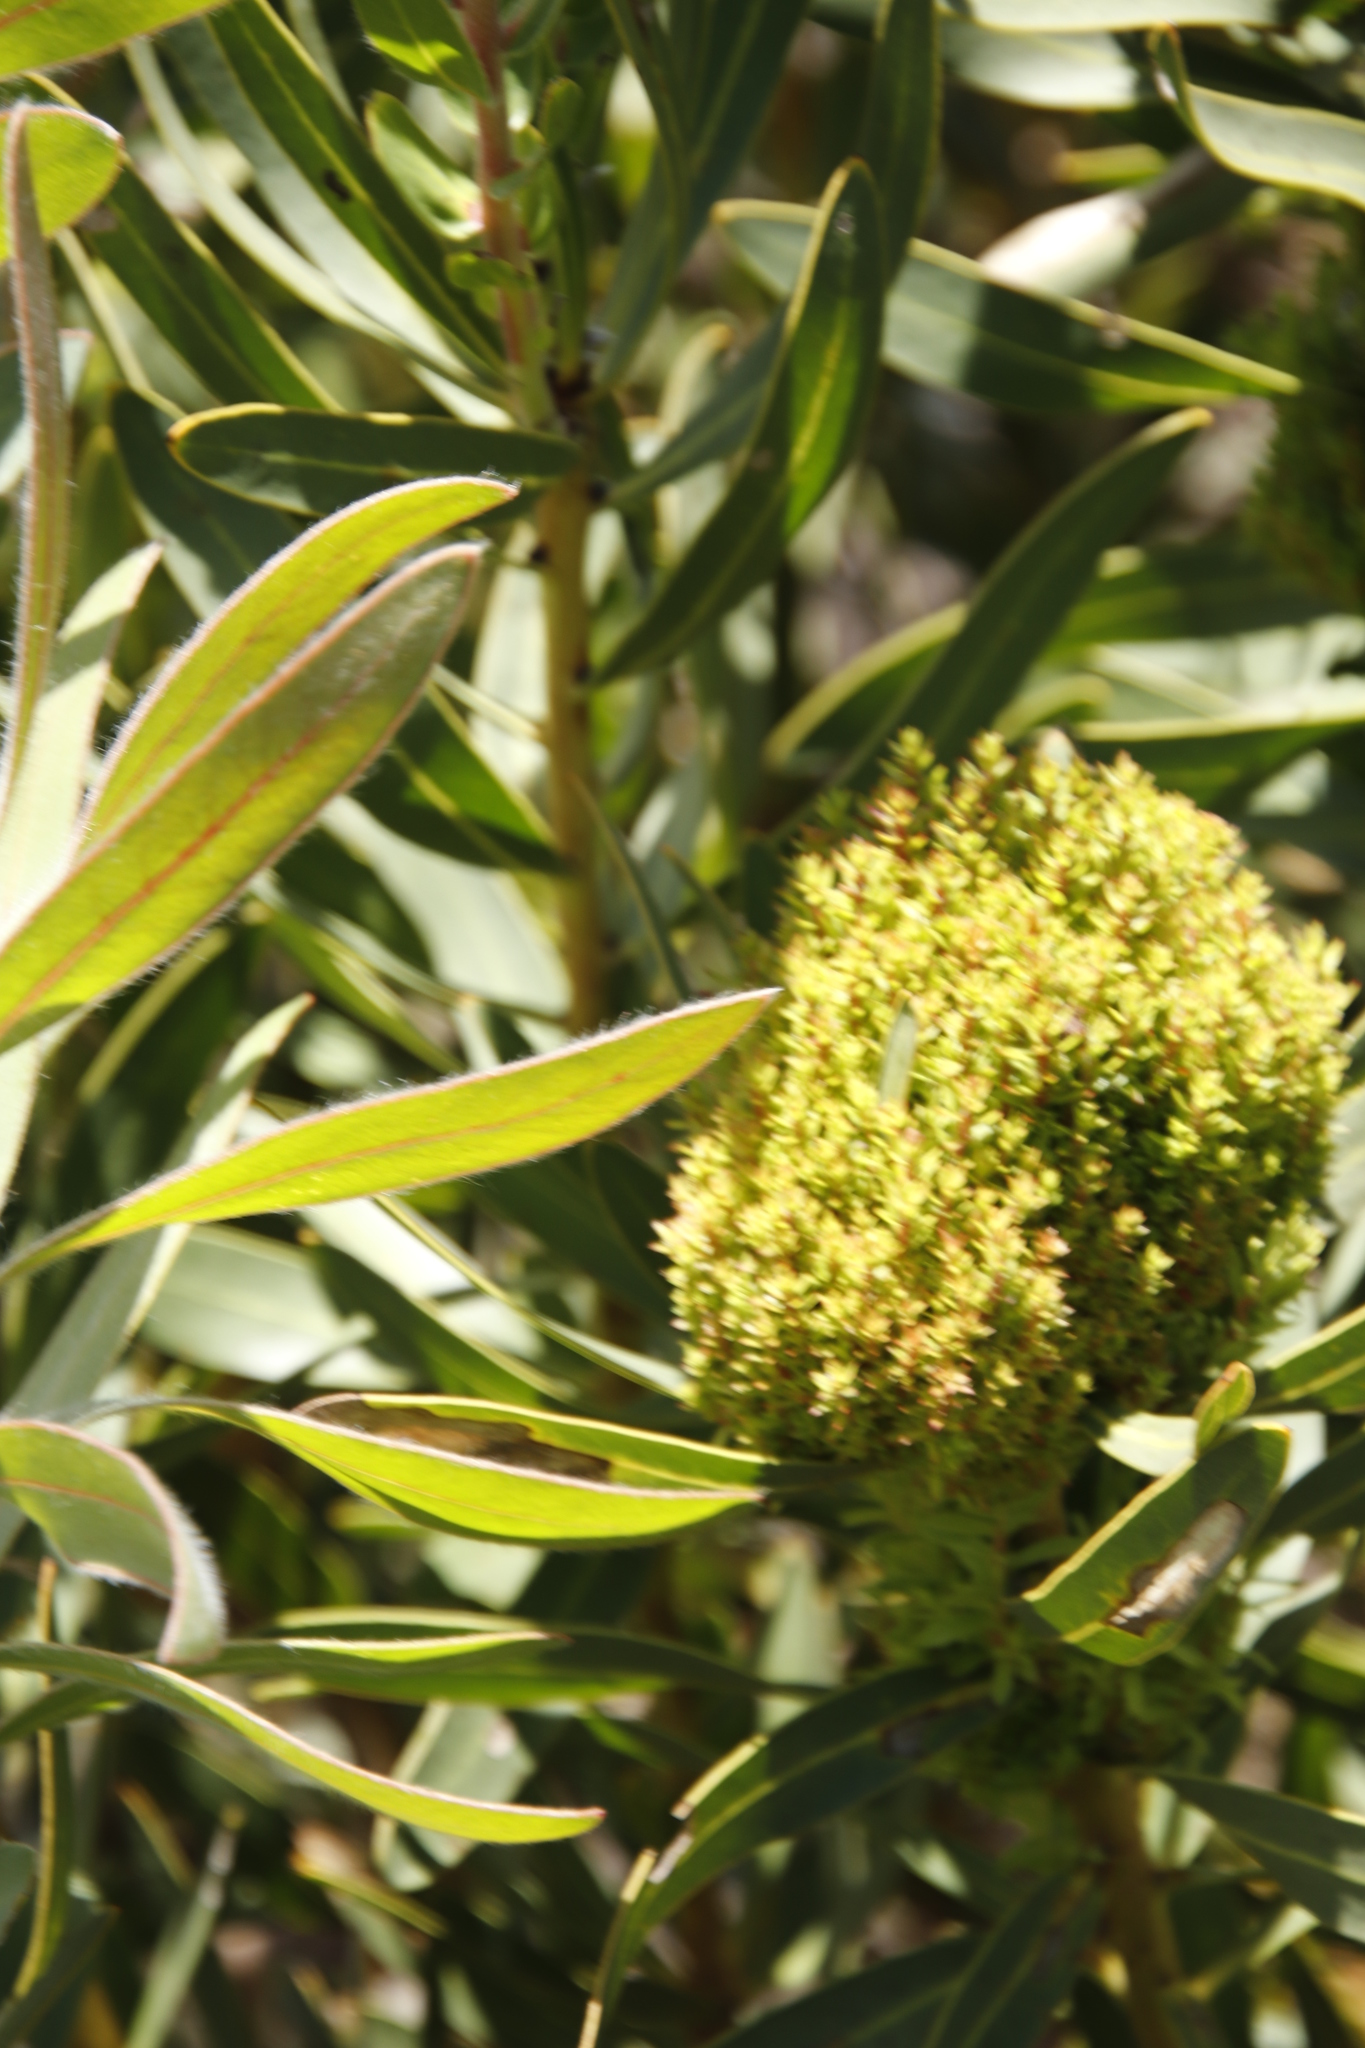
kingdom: Bacteria
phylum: Firmicutes
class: Bacilli
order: Acholeplasmatales
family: Acholeplasmataceae
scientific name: Acholeplasmataceae
